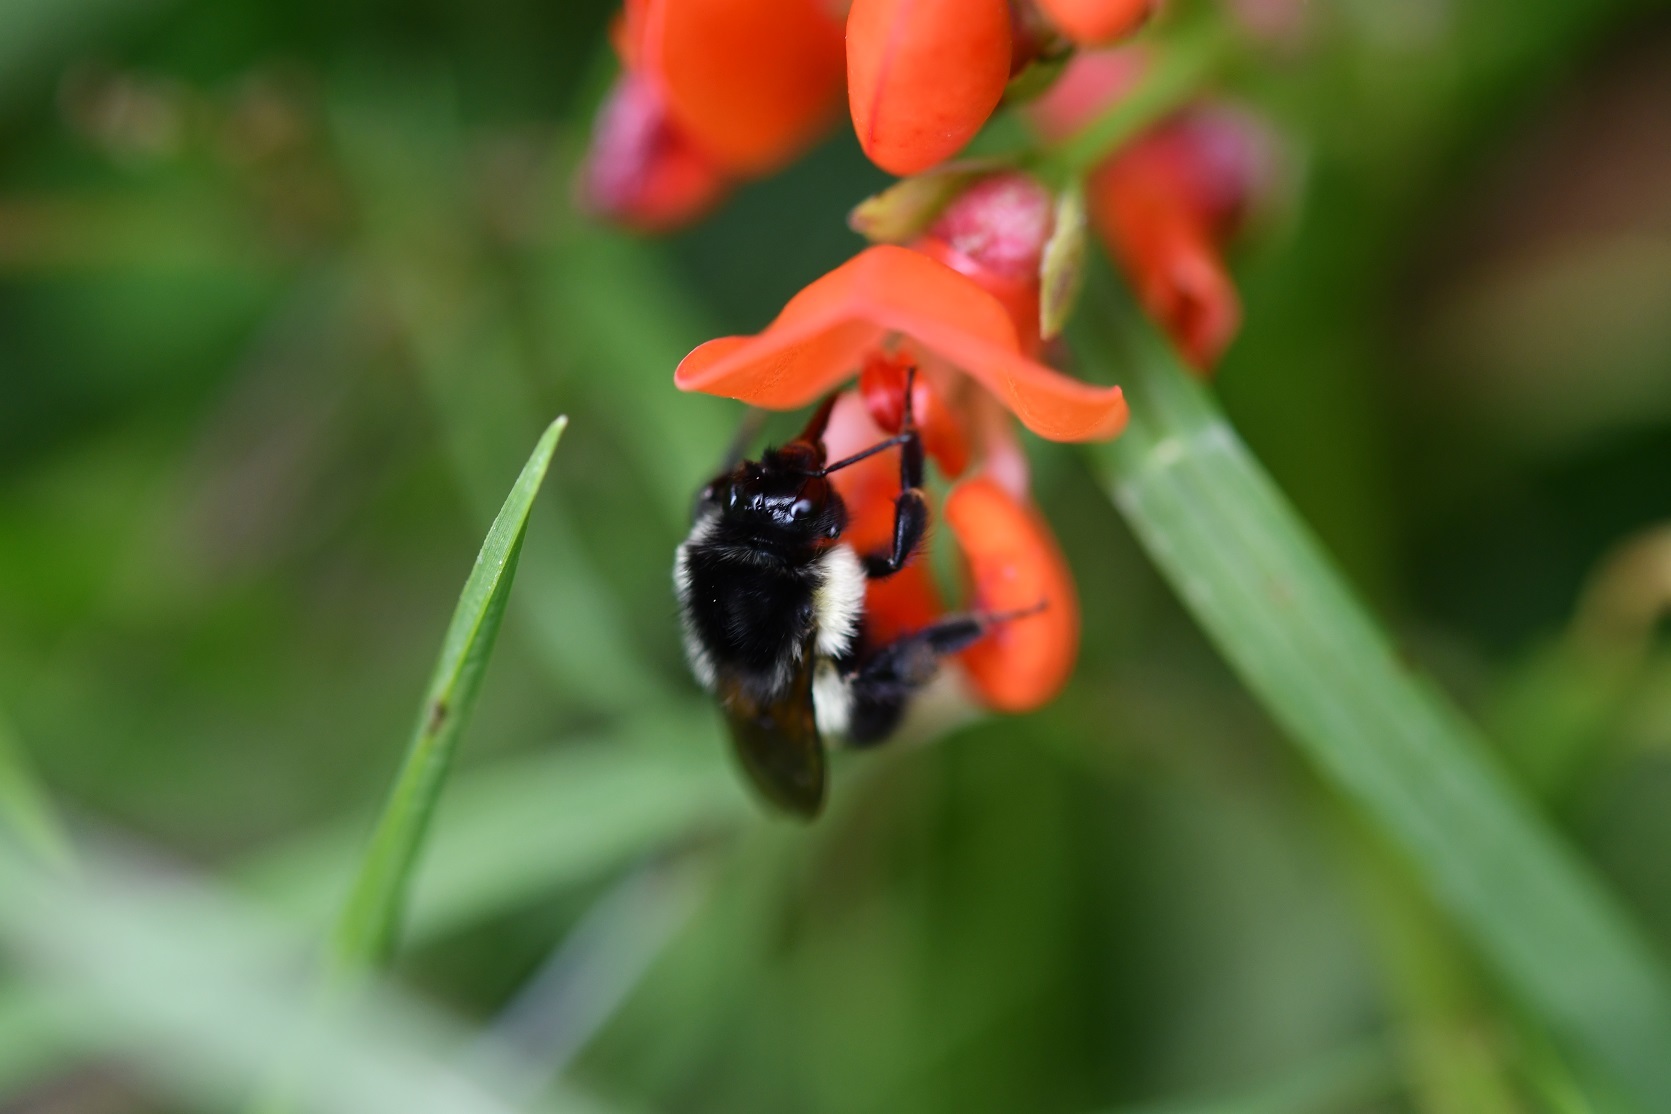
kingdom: Animalia
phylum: Arthropoda
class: Insecta
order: Hymenoptera
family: Apidae
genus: Bombus
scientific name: Bombus ephippiatus
